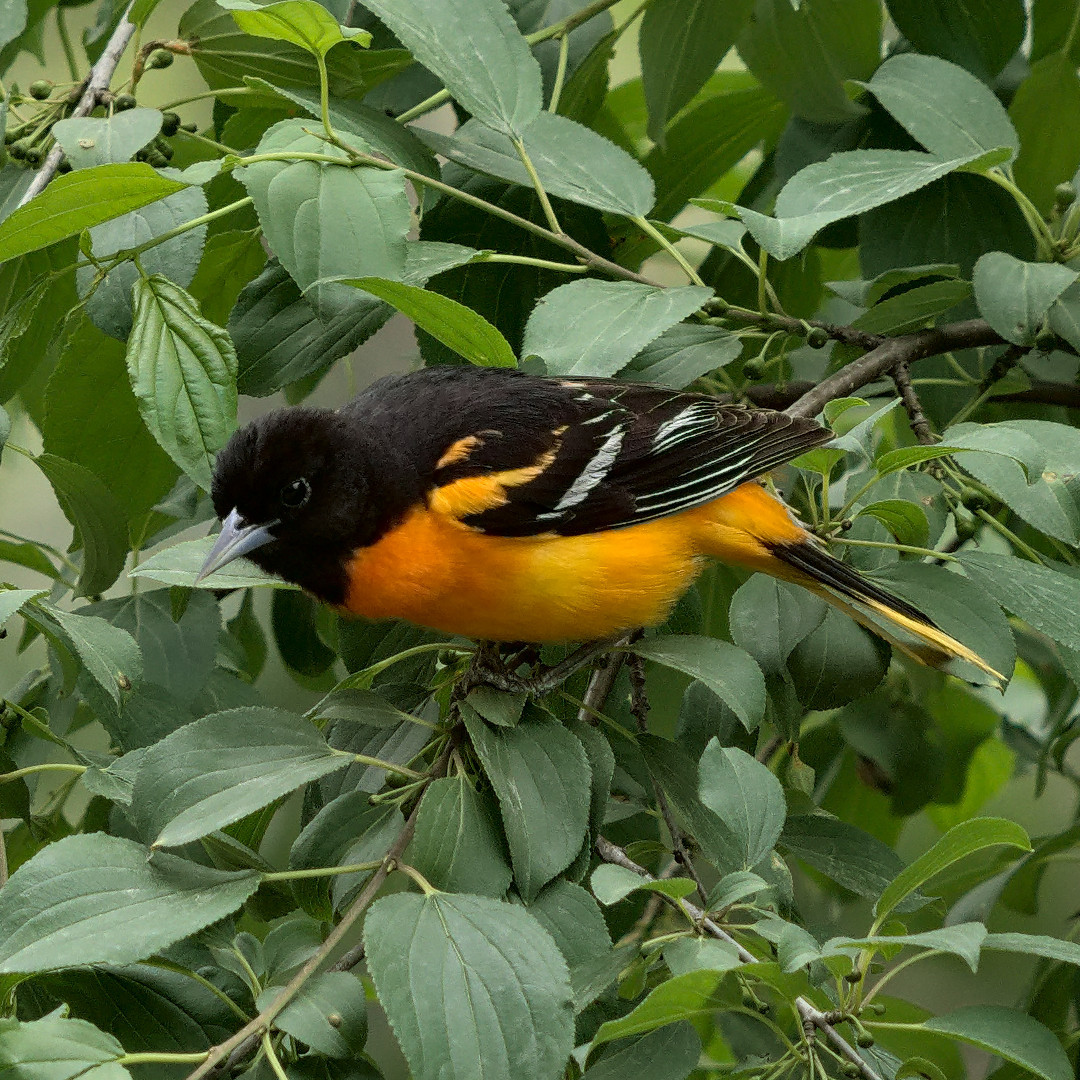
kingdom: Animalia
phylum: Chordata
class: Aves
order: Passeriformes
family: Icteridae
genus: Icterus
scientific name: Icterus galbula
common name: Baltimore oriole
